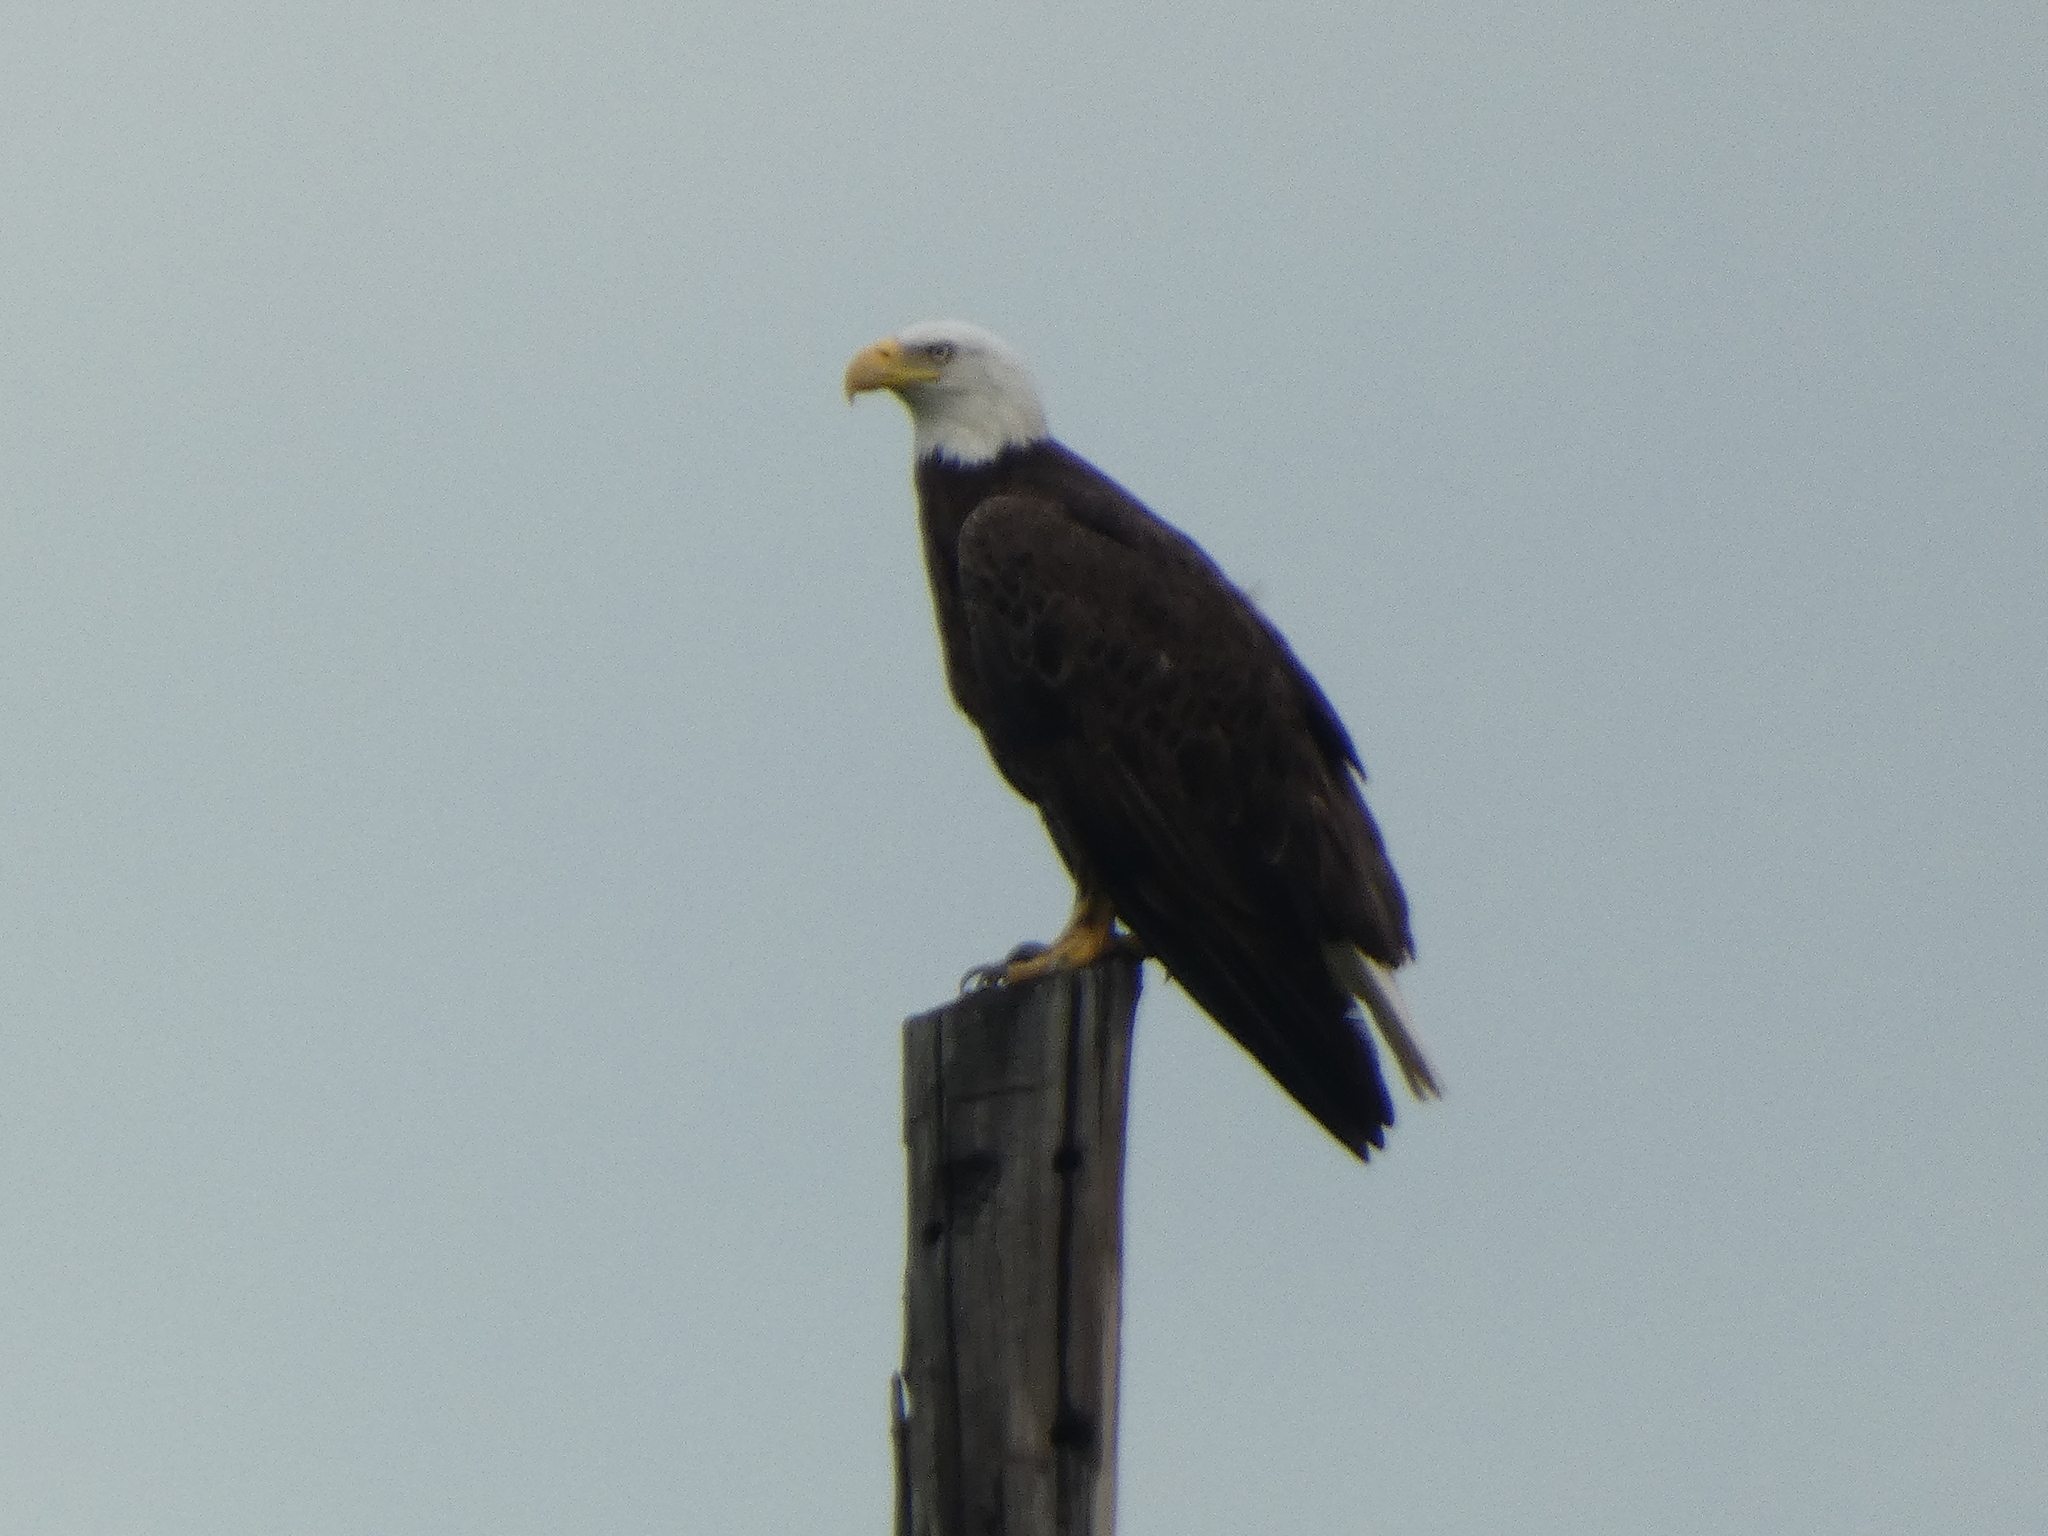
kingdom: Animalia
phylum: Chordata
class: Aves
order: Accipitriformes
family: Accipitridae
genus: Haliaeetus
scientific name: Haliaeetus leucocephalus
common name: Bald eagle
